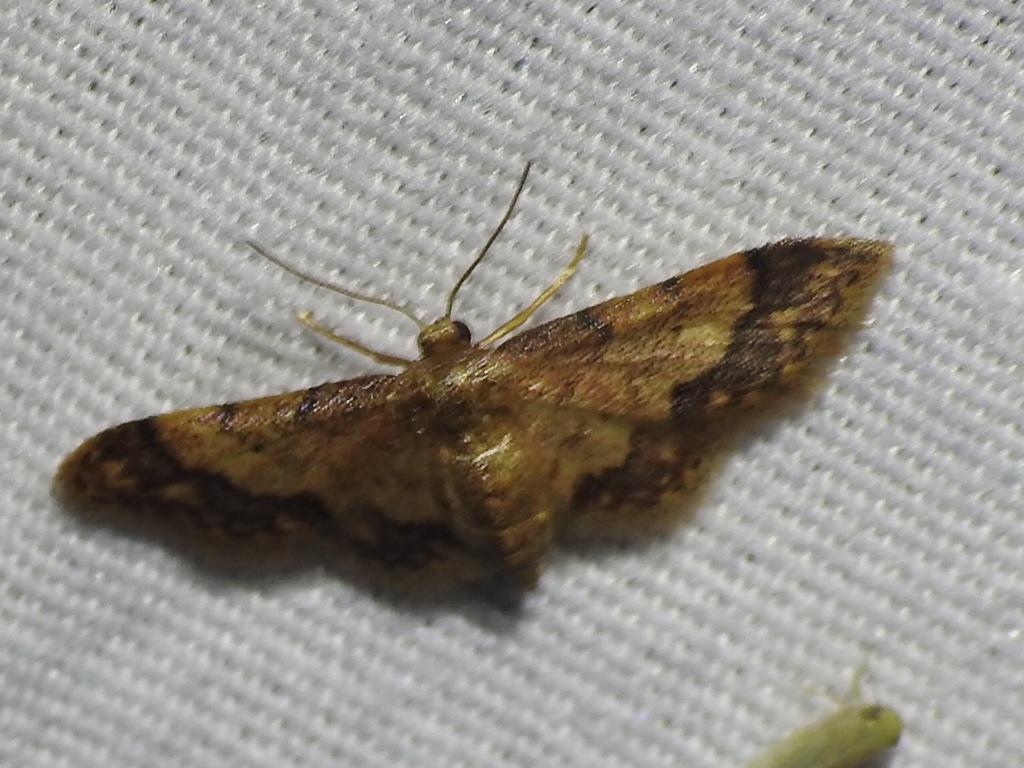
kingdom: Animalia
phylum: Arthropoda
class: Insecta
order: Lepidoptera
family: Geometridae
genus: Idaea
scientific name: Idaea celtima
